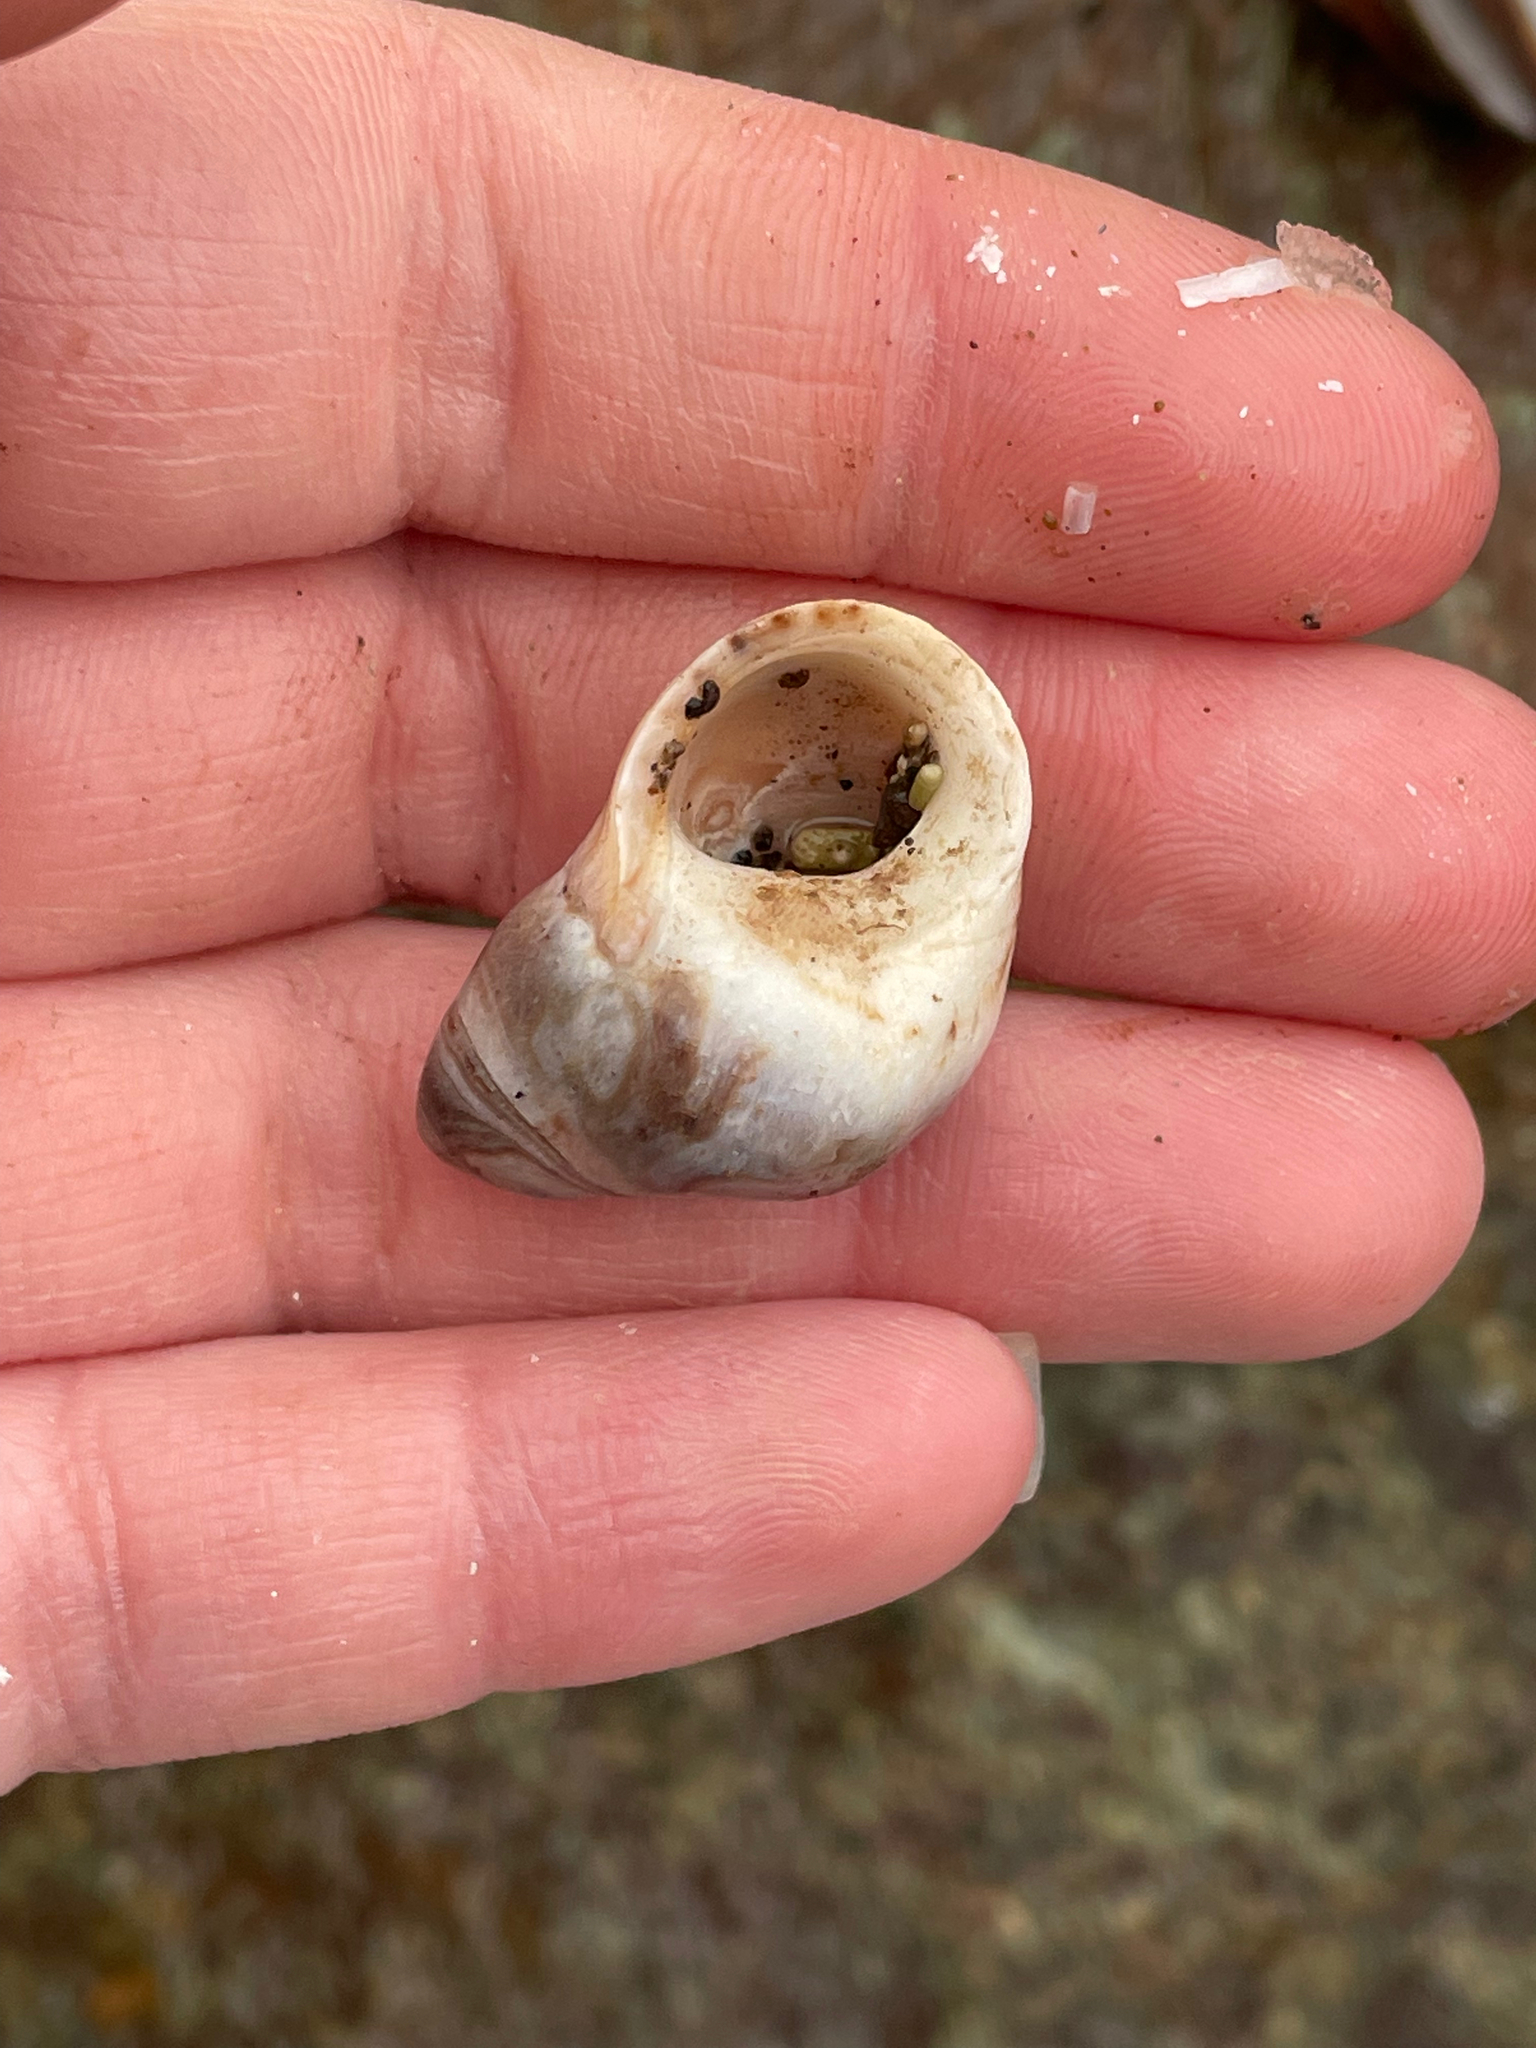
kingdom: Animalia
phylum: Mollusca
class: Gastropoda
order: Littorinimorpha
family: Littorinidae
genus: Littorina
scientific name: Littorina littorea
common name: Common periwinkle
